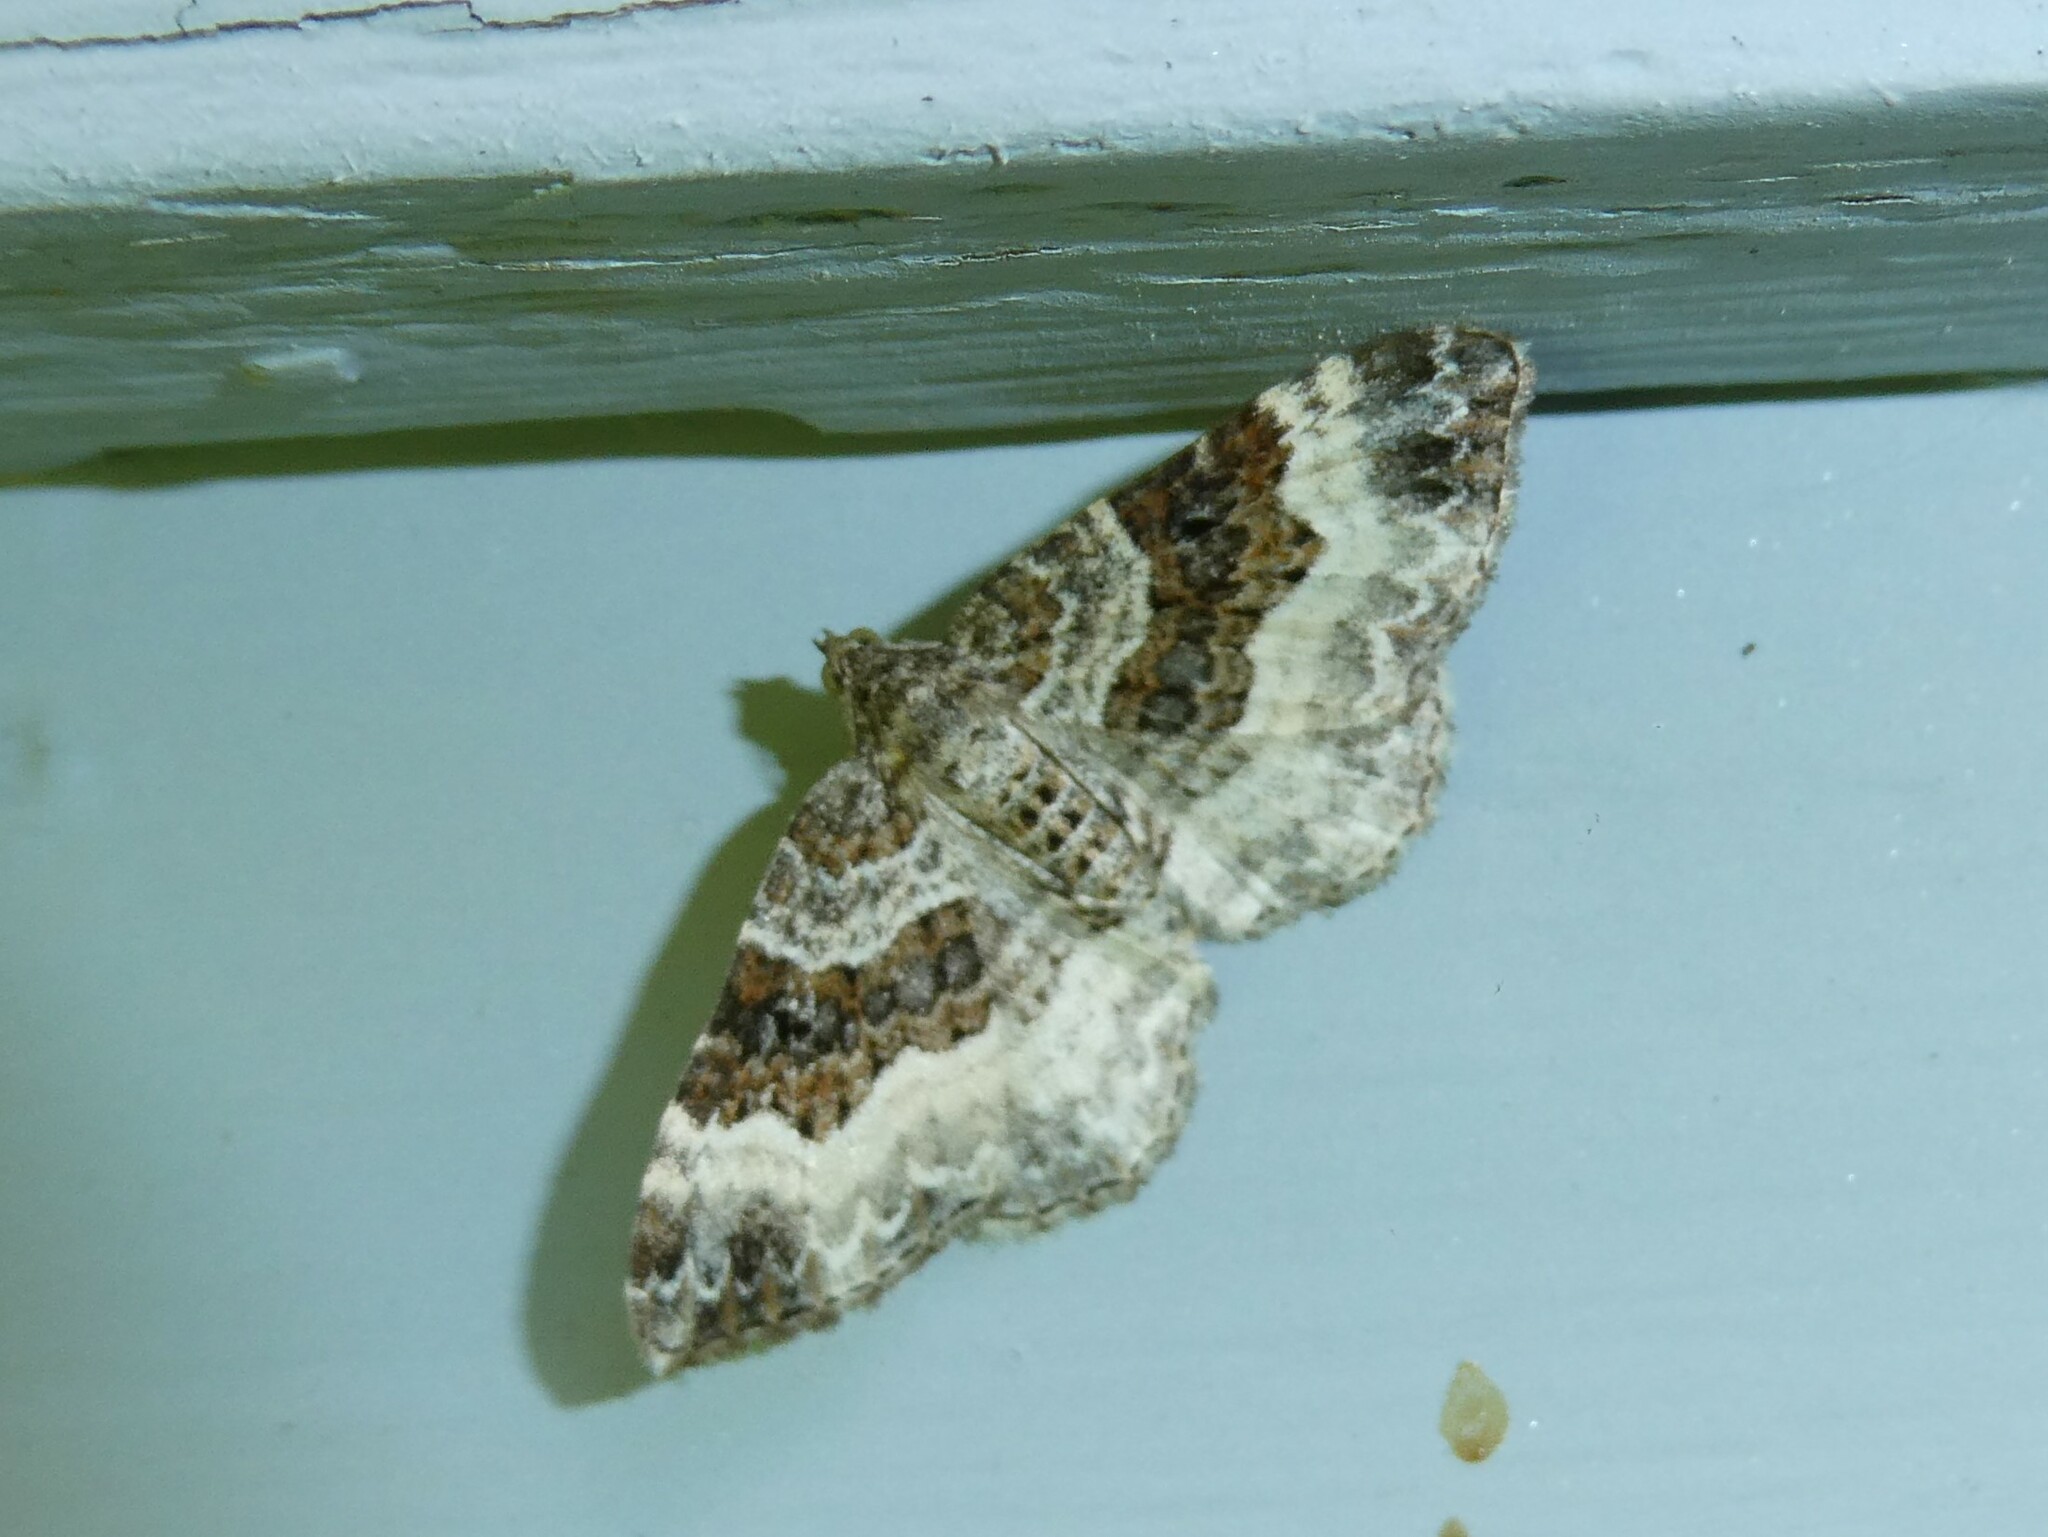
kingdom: Animalia
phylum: Arthropoda
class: Insecta
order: Lepidoptera
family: Geometridae
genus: Epirrhoe
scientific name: Epirrhoe alternata
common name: Common carpet
